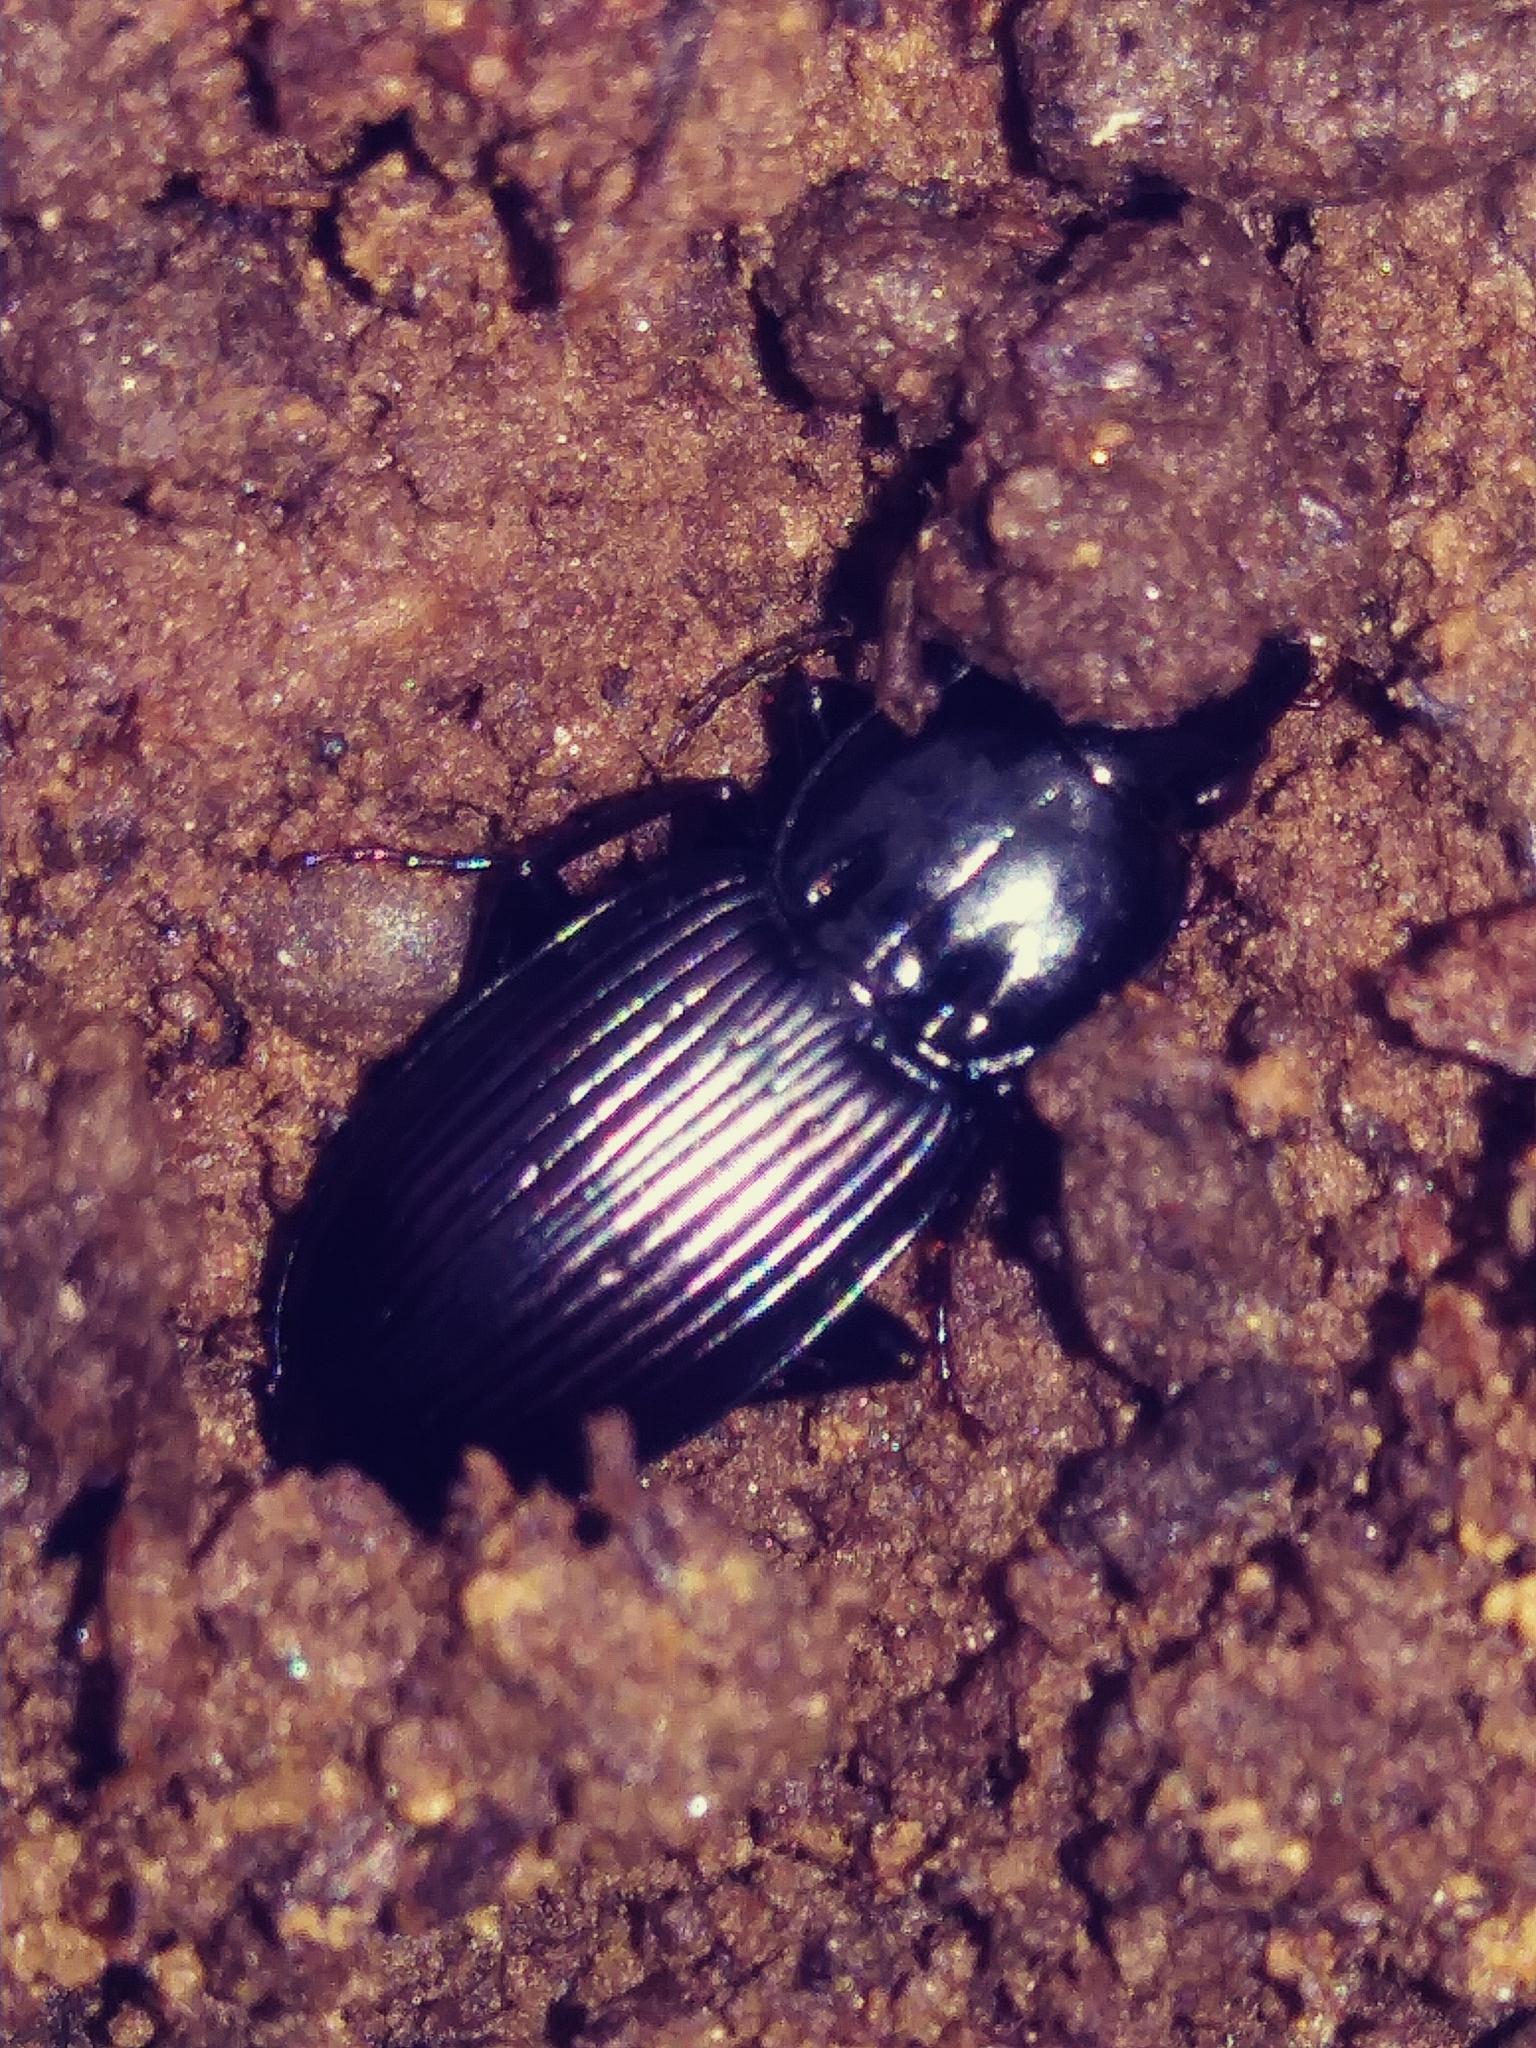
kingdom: Animalia
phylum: Arthropoda
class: Insecta
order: Coleoptera
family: Carabidae
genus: Pterostichus
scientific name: Pterostichus trinarius
